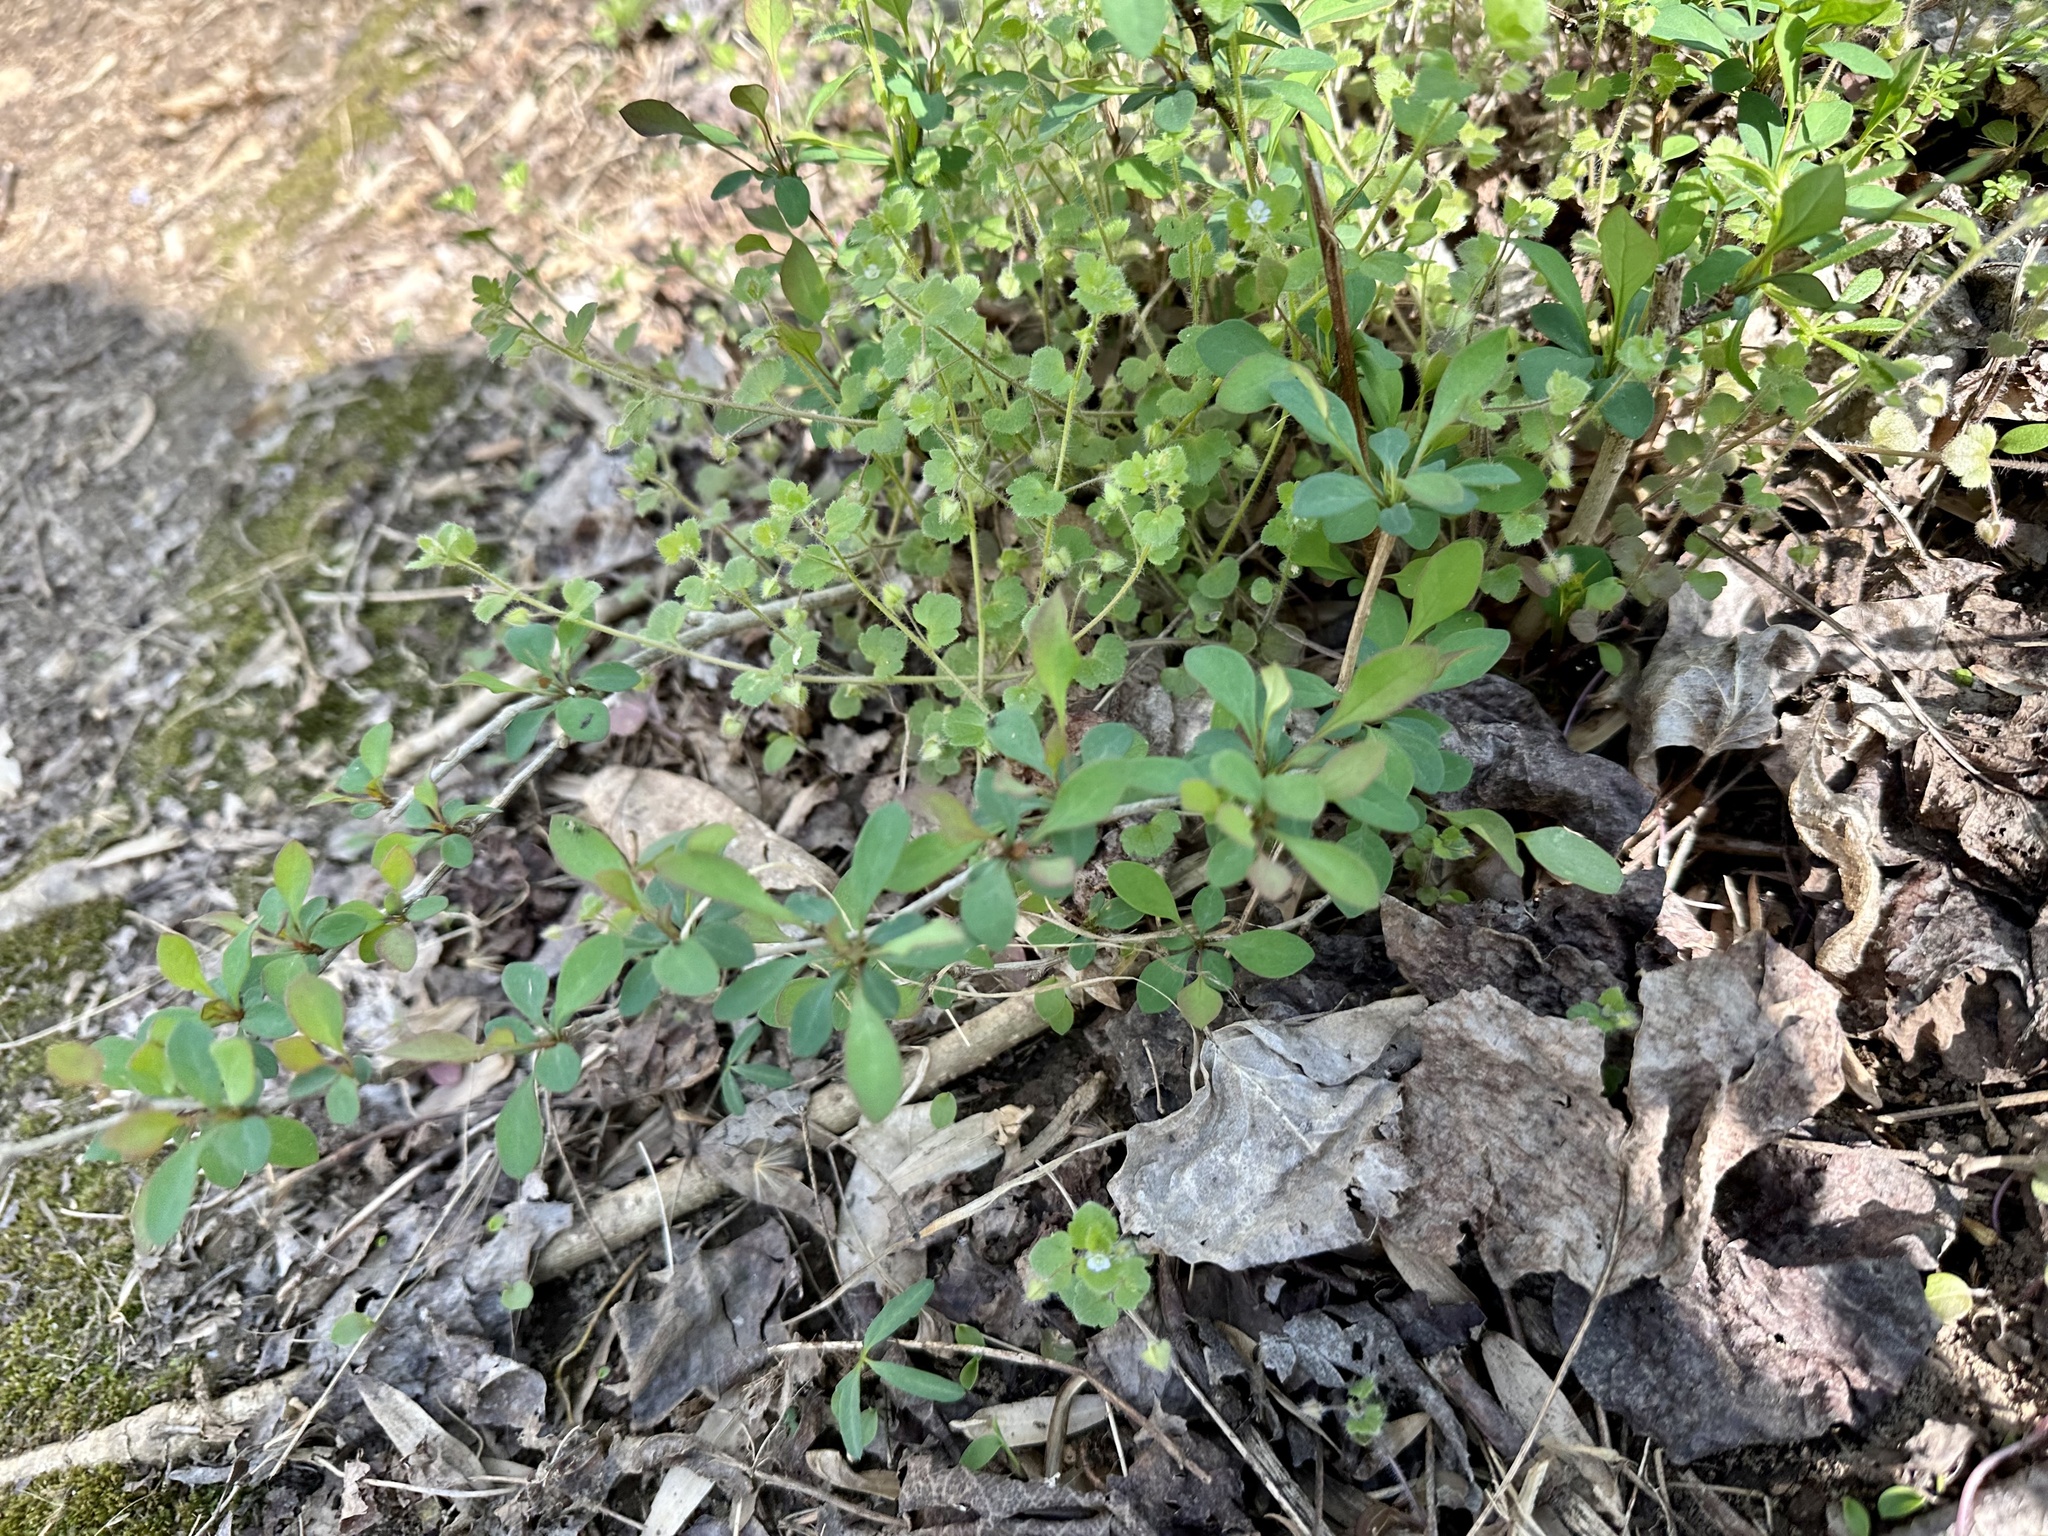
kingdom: Plantae
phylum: Tracheophyta
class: Magnoliopsida
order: Ranunculales
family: Berberidaceae
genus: Berberis
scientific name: Berberis thunbergii
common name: Japanese barberry
